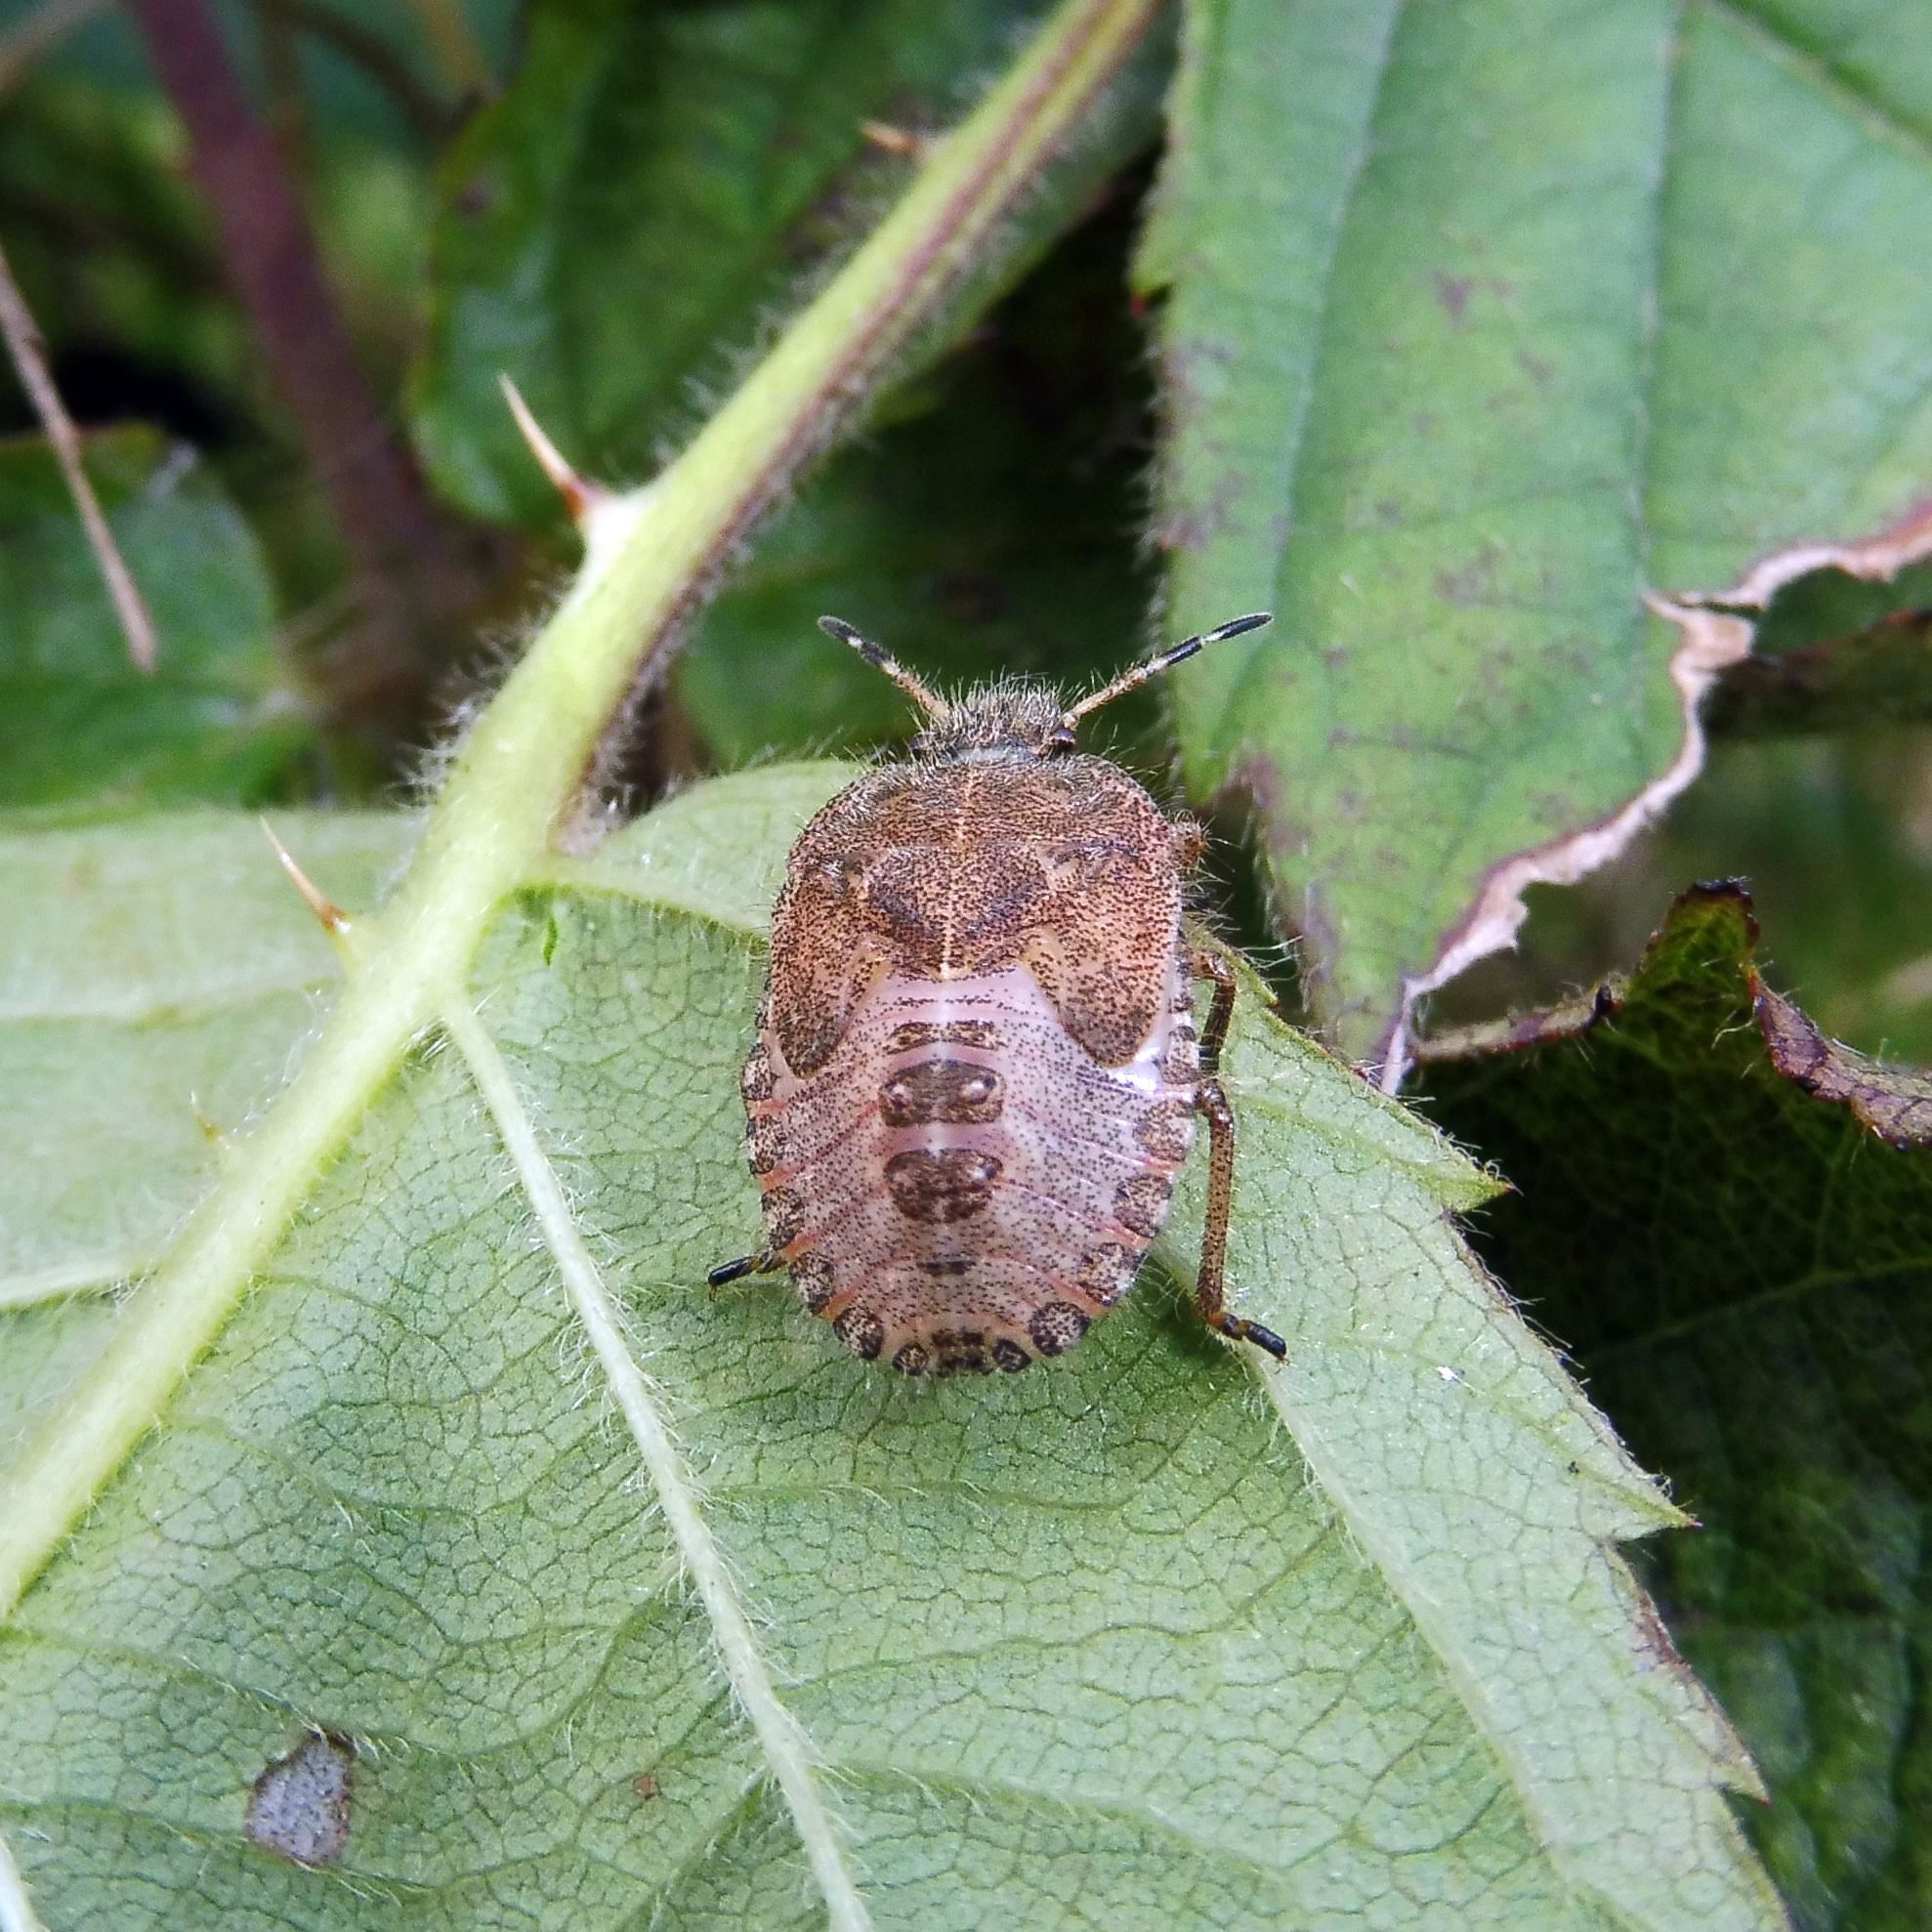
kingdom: Animalia
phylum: Arthropoda
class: Insecta
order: Hemiptera
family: Pentatomidae
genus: Dolycoris
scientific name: Dolycoris baccarum
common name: Sloe bug
